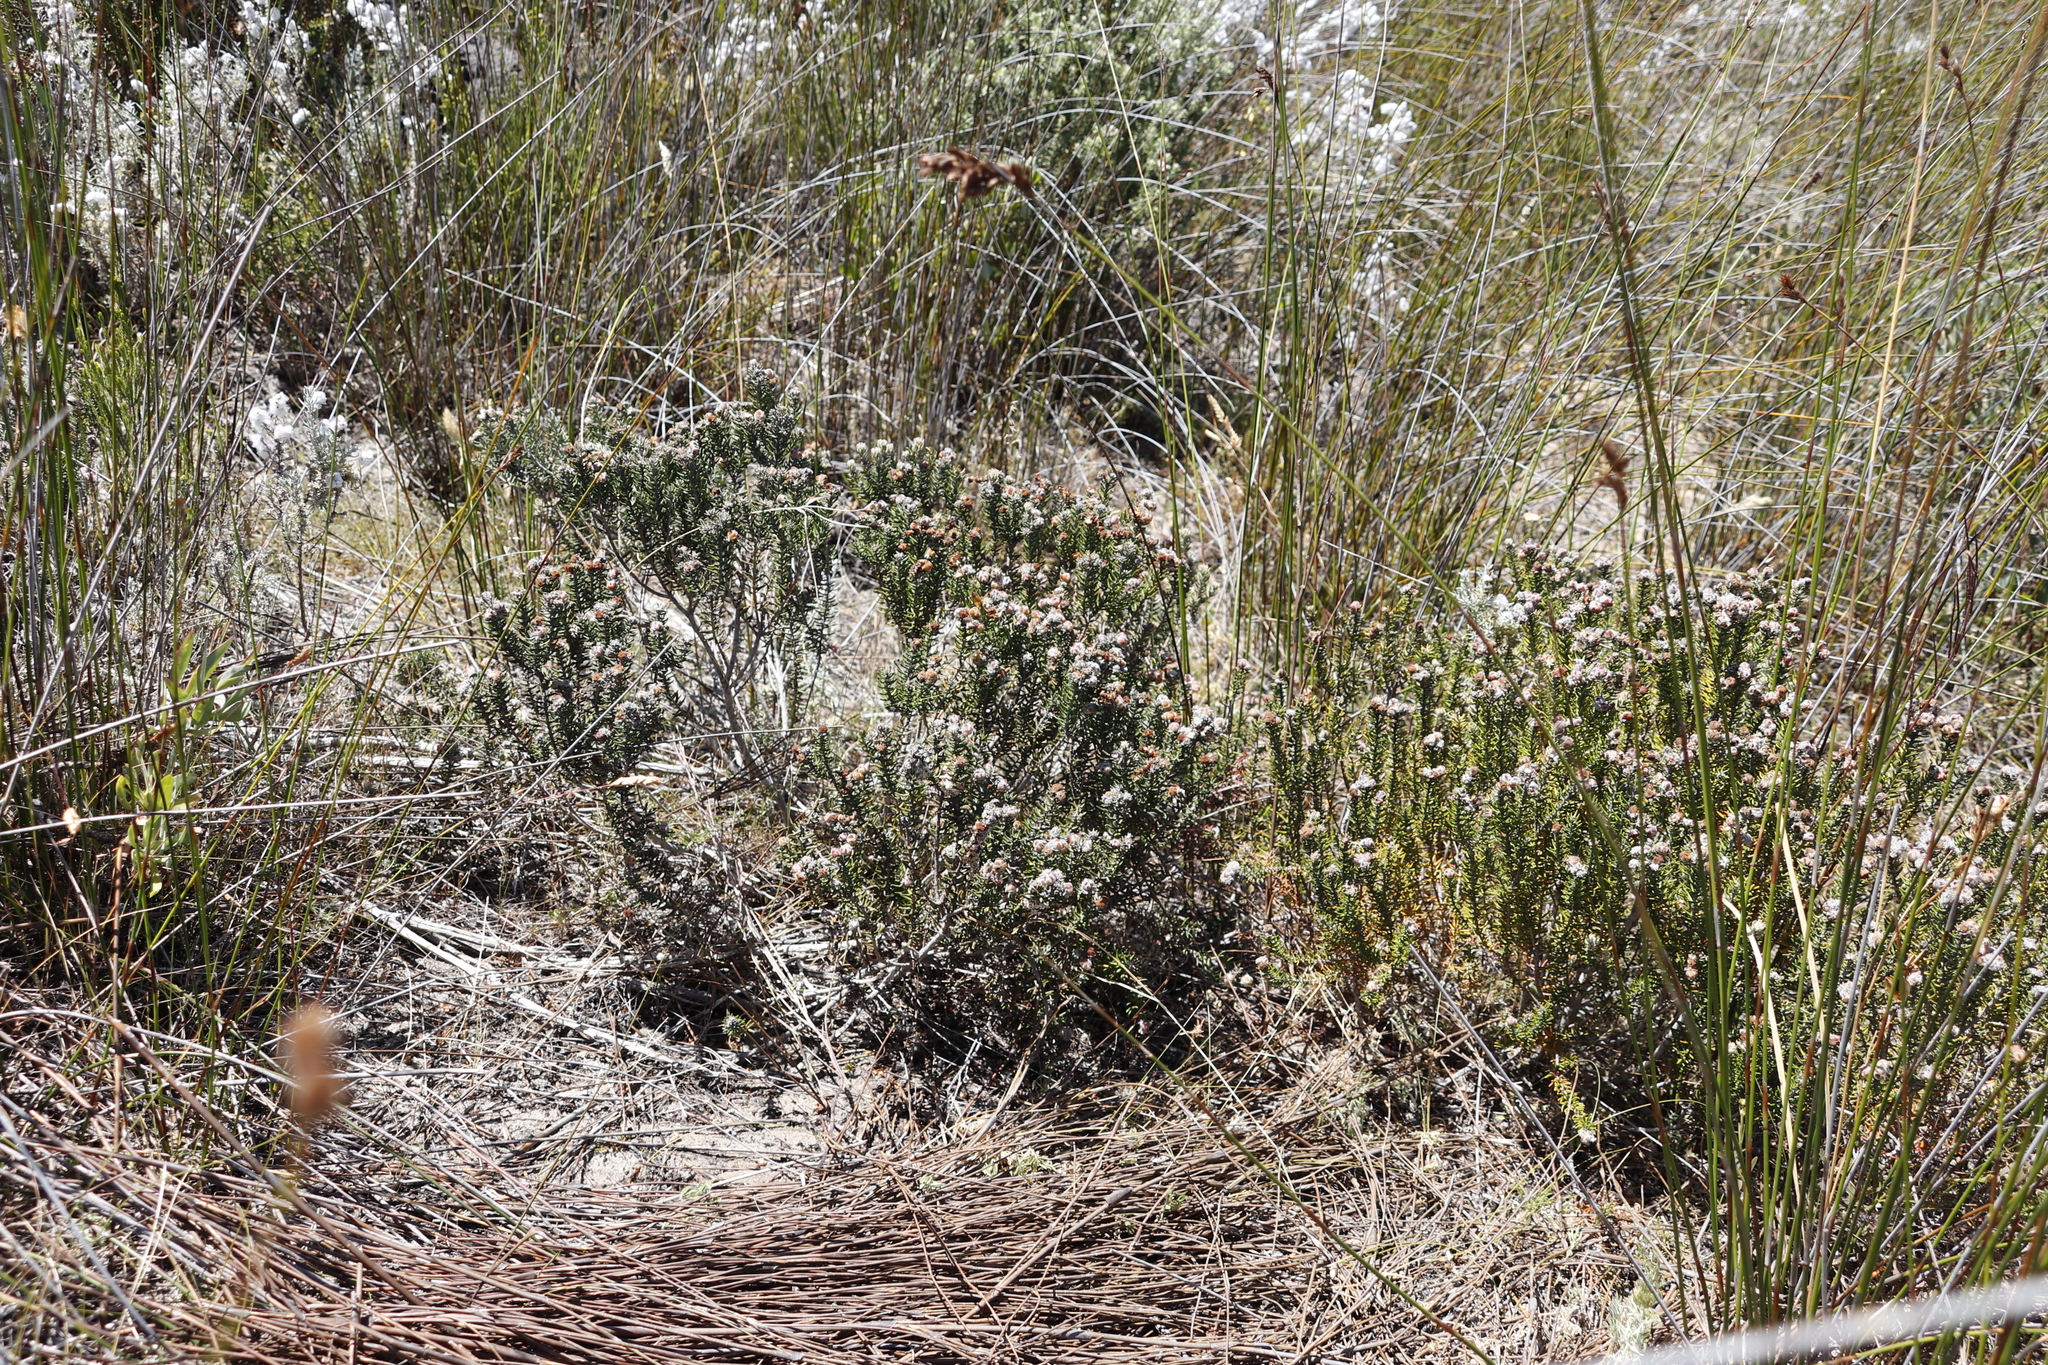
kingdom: Plantae
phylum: Tracheophyta
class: Magnoliopsida
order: Rosales
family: Rhamnaceae
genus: Trichocephalus
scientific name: Trichocephalus stipularis
